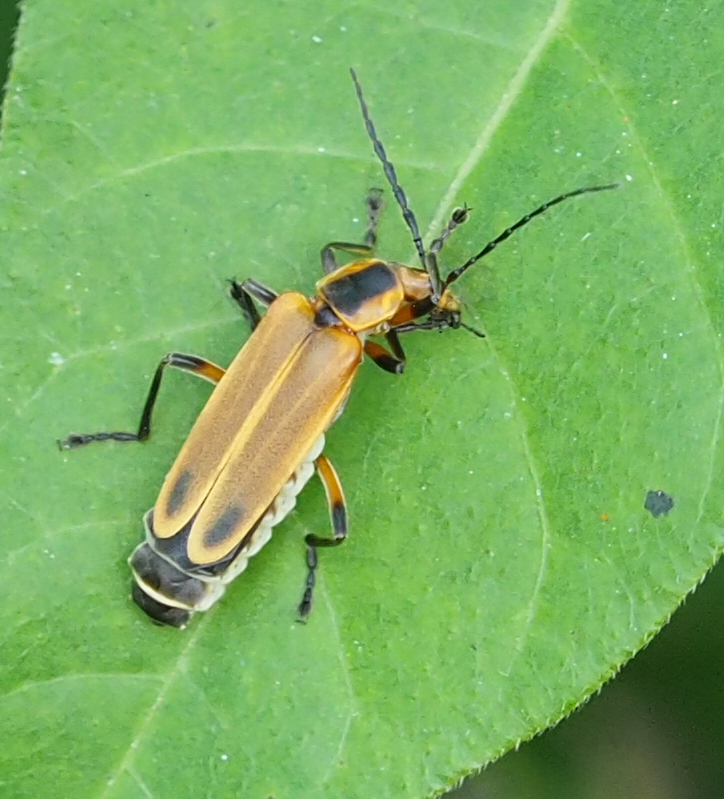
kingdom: Animalia
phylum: Arthropoda
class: Insecta
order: Coleoptera
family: Cantharidae
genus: Chauliognathus
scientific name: Chauliognathus marginatus
